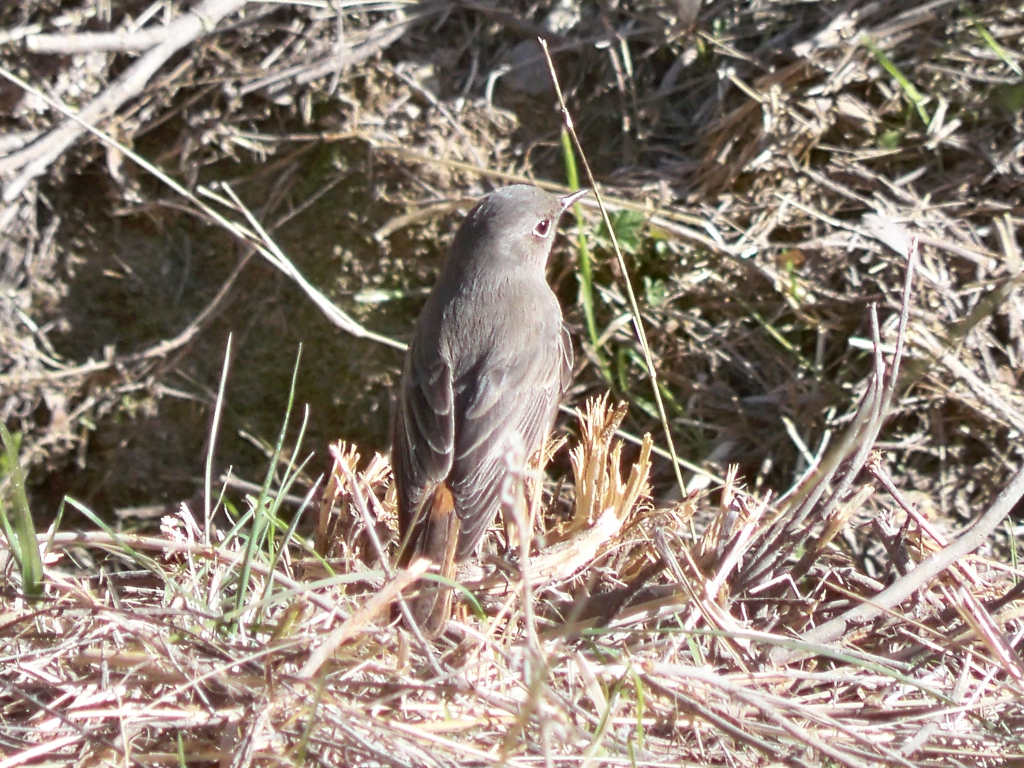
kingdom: Animalia
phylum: Chordata
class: Aves
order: Passeriformes
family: Muscicapidae
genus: Phoenicurus
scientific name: Phoenicurus ochruros
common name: Black redstart
